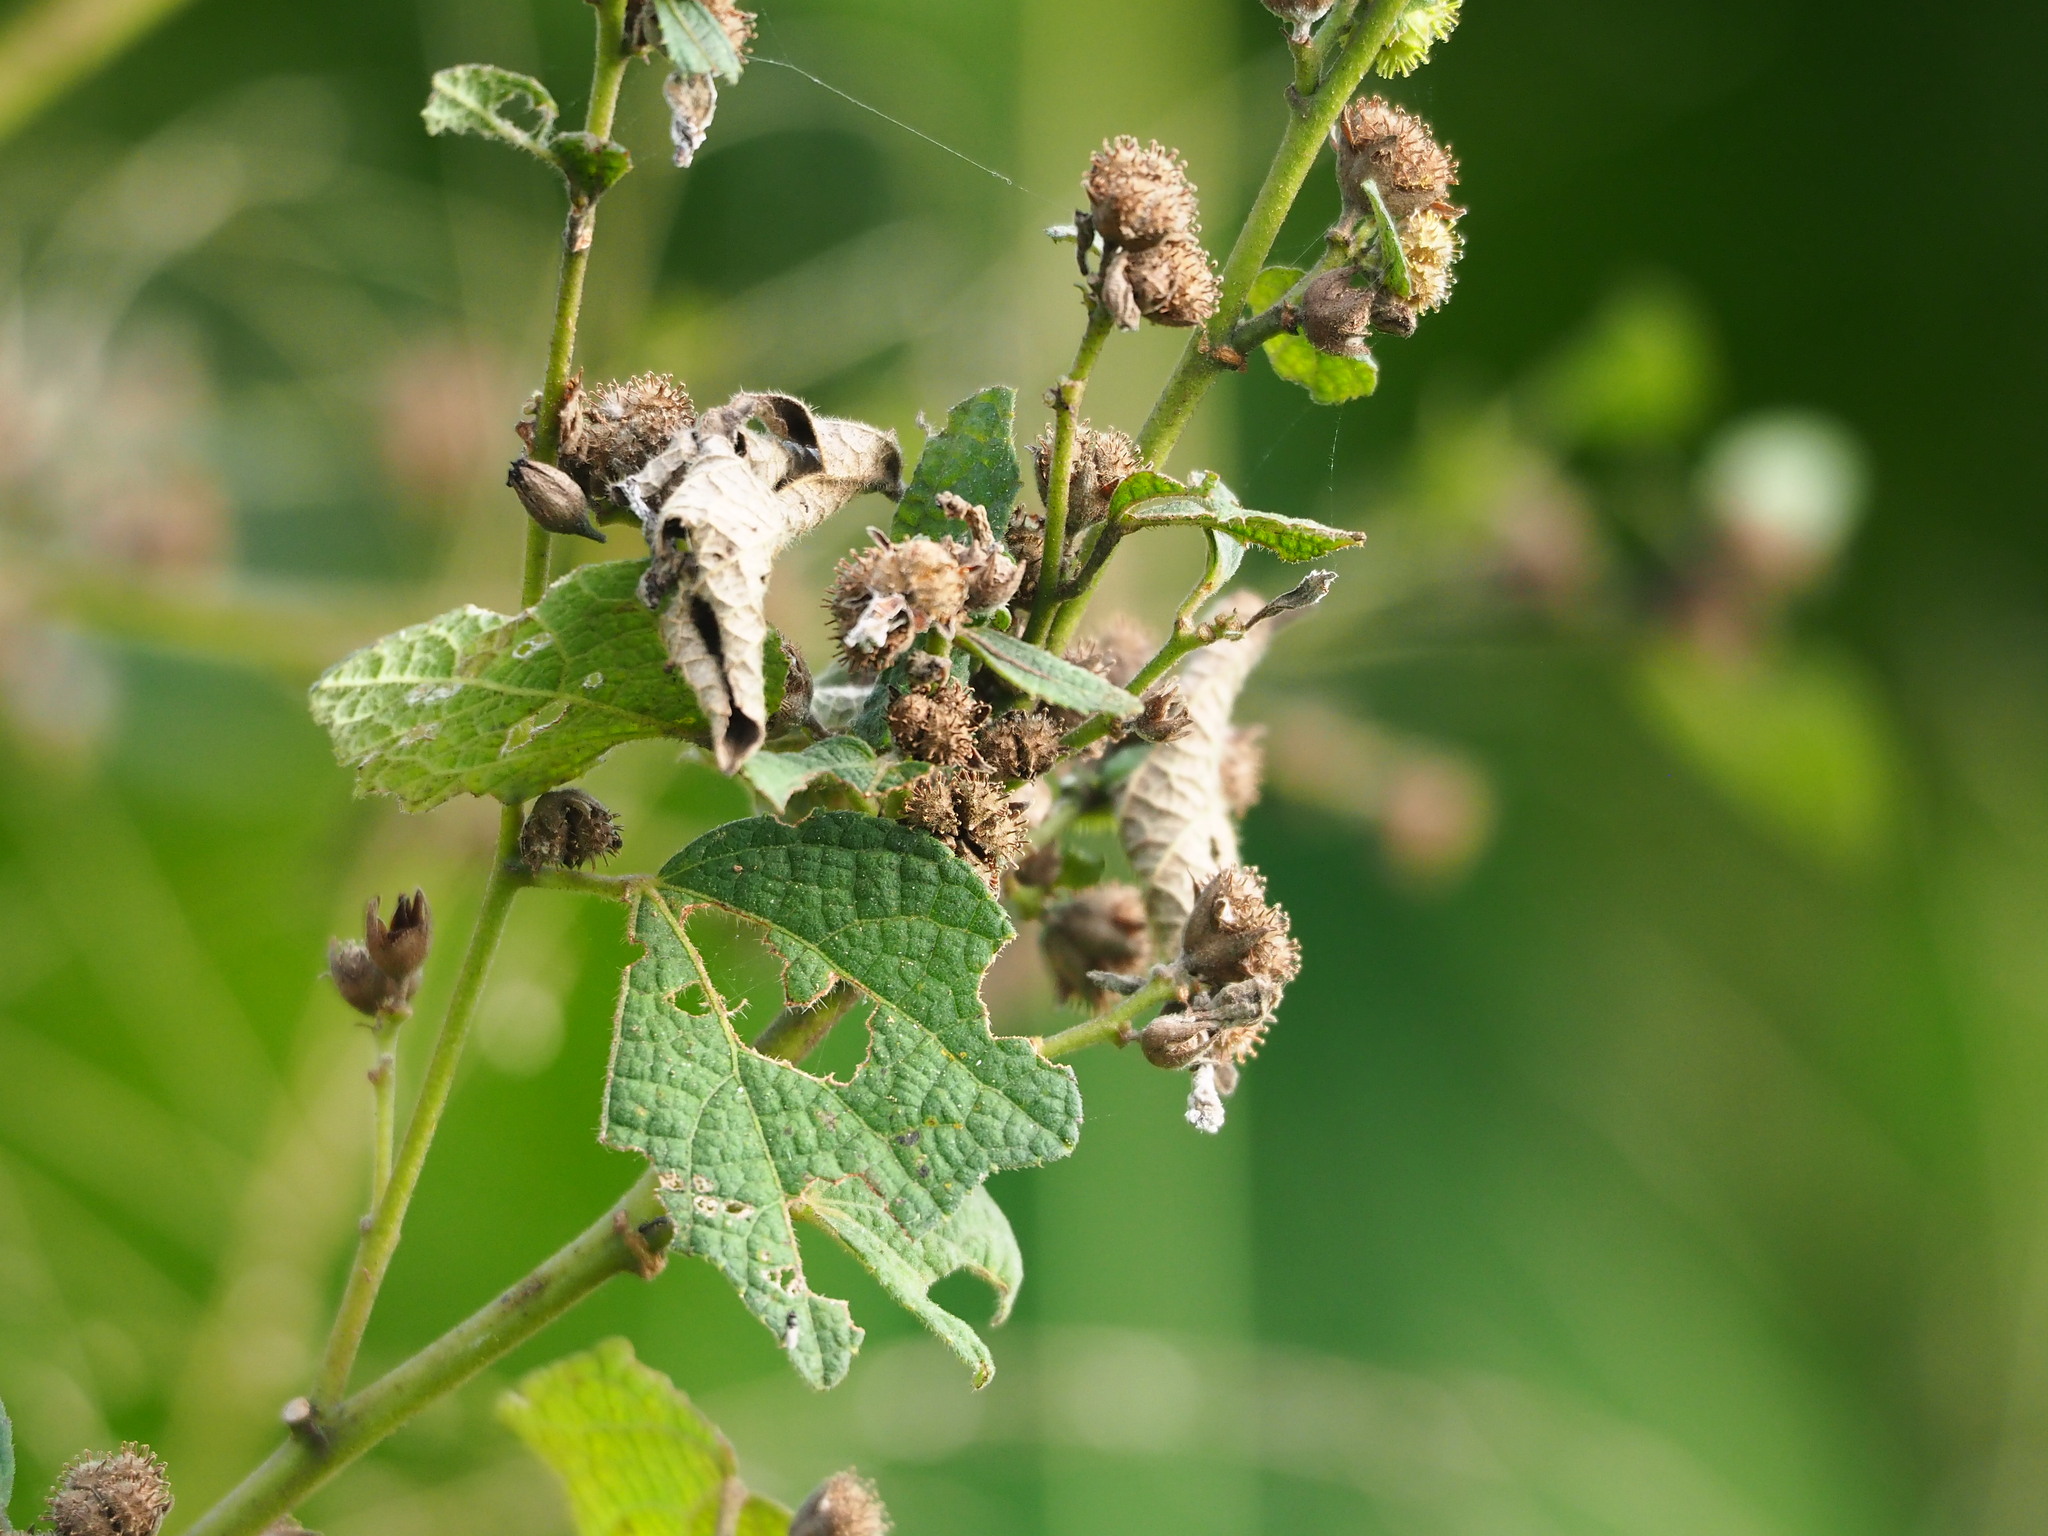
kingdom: Plantae
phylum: Tracheophyta
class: Magnoliopsida
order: Malvales
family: Malvaceae
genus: Urena
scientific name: Urena lobata
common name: Caesarweed
